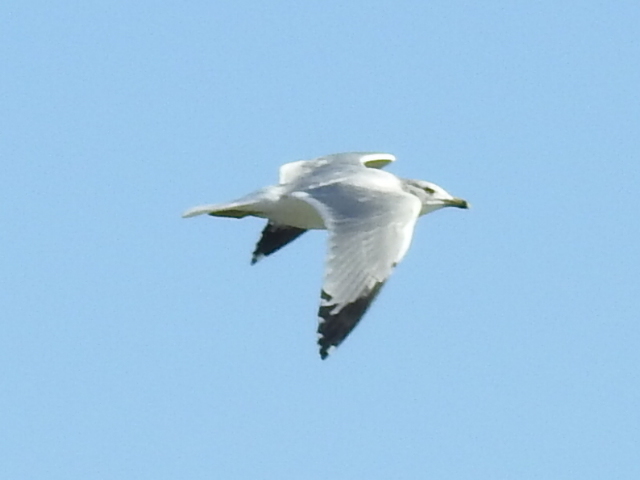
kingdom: Animalia
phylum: Chordata
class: Aves
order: Charadriiformes
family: Laridae
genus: Larus
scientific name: Larus delawarensis
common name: Ring-billed gull
